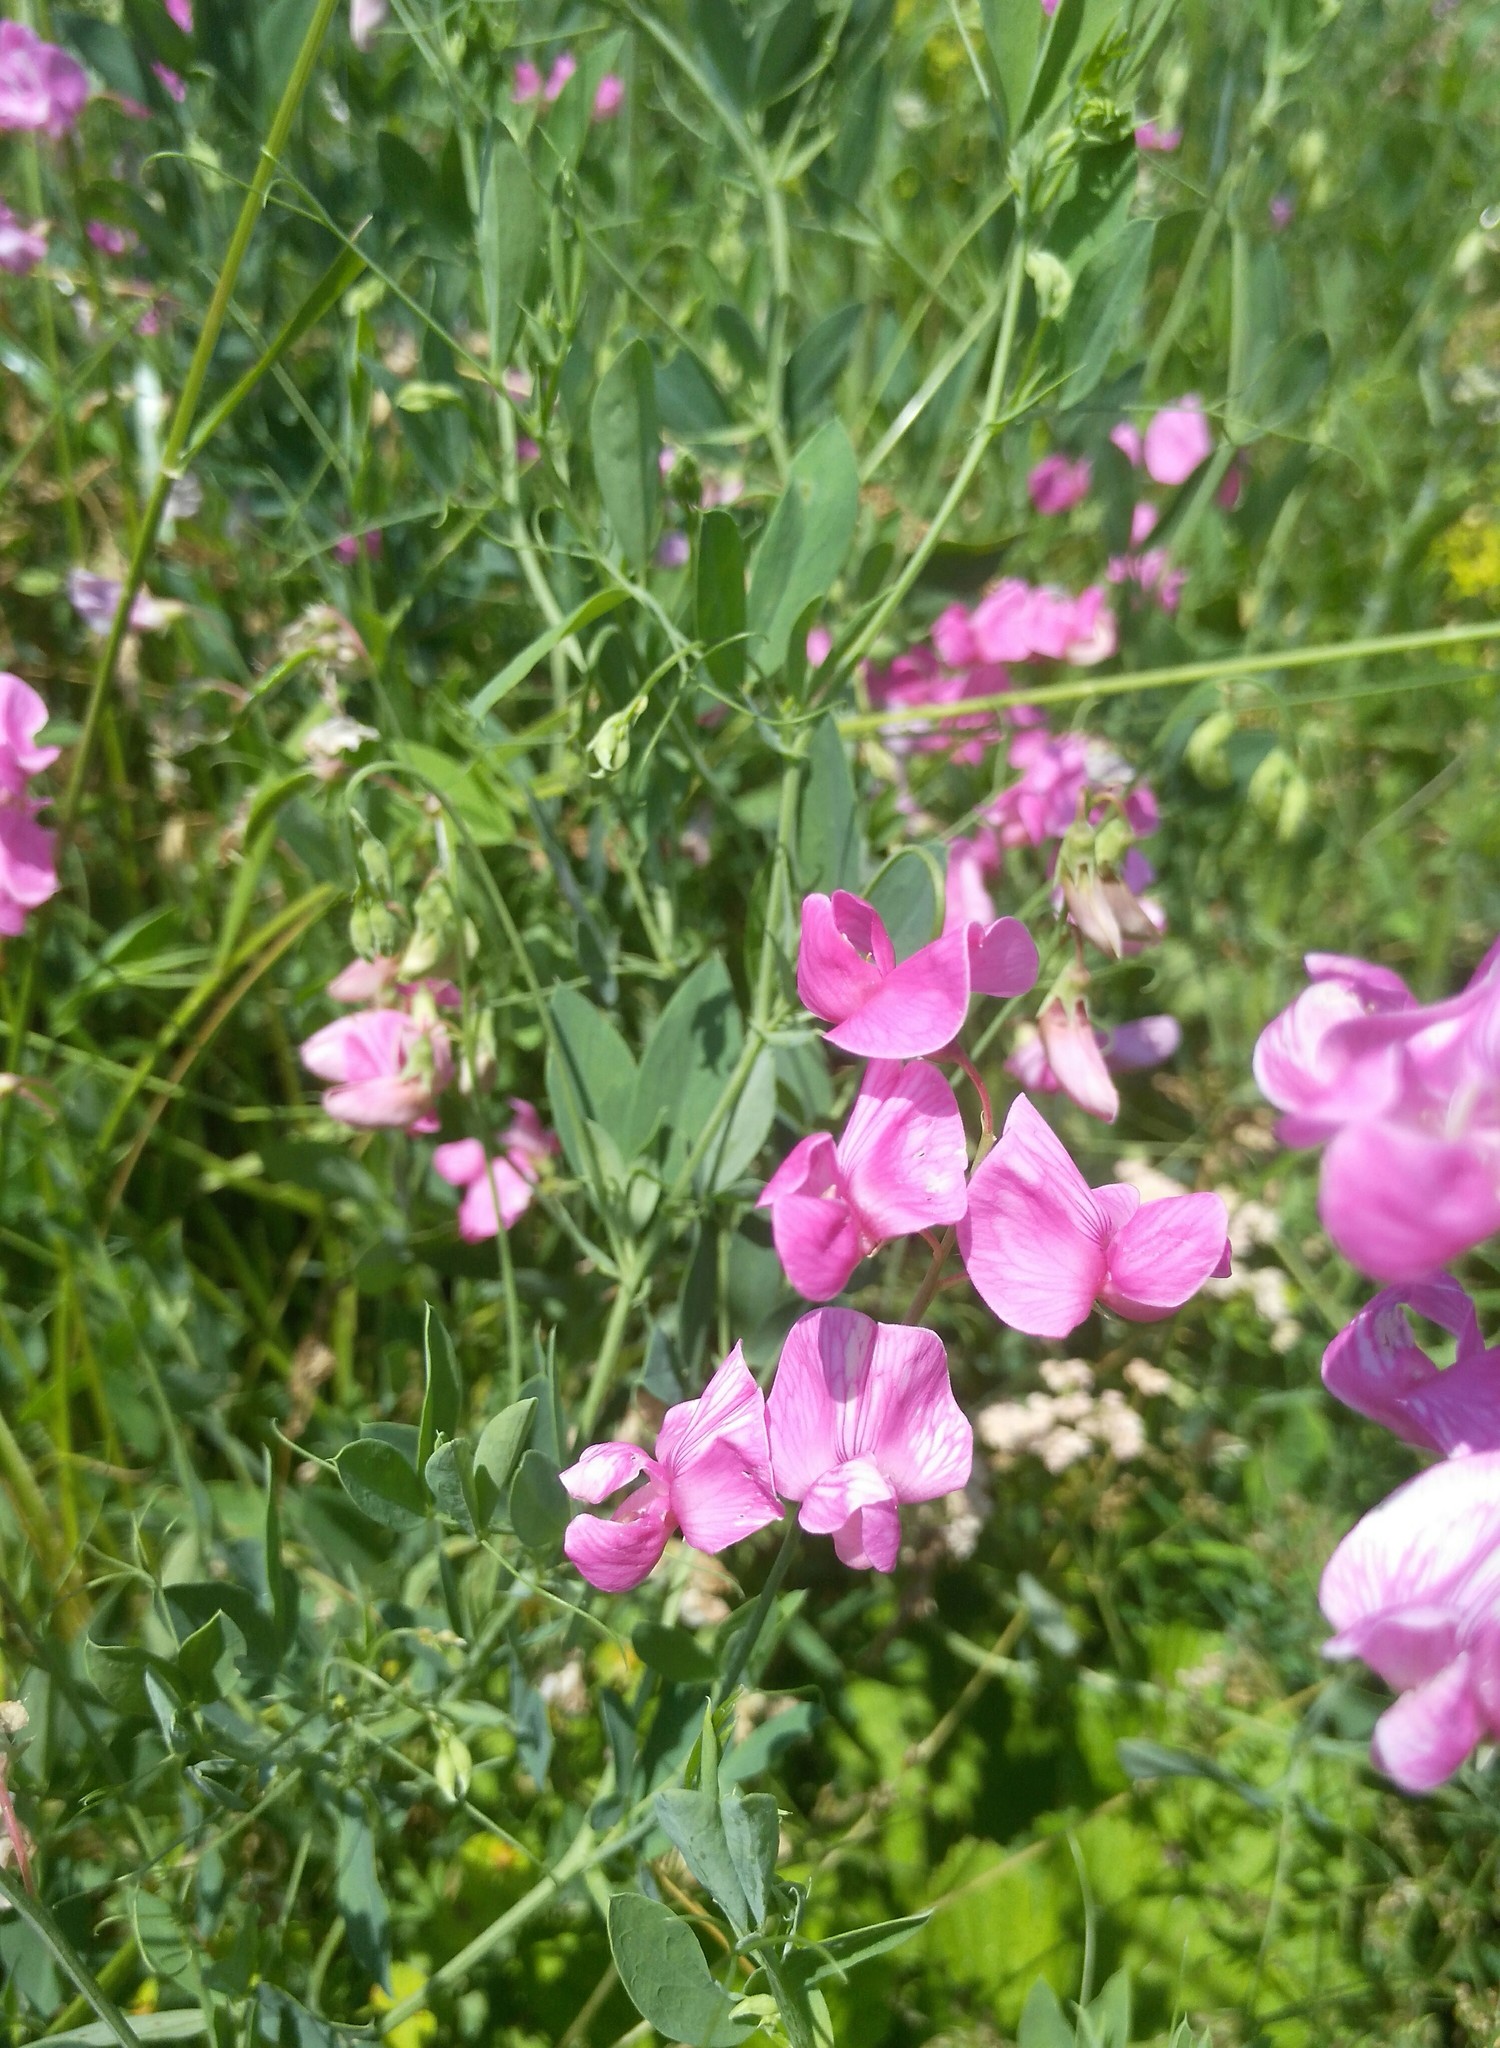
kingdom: Plantae
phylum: Tracheophyta
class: Magnoliopsida
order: Fabales
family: Fabaceae
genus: Lathyrus
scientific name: Lathyrus tuberosus
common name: Tuberous pea
